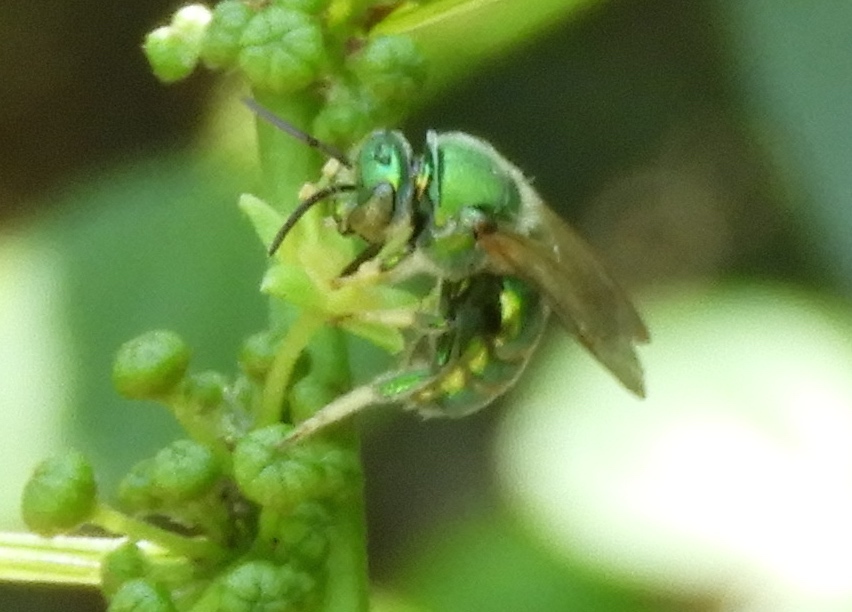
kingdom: Animalia
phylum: Arthropoda
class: Insecta
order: Hymenoptera
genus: Paraugochloropsis
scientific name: Paraugochloropsis
